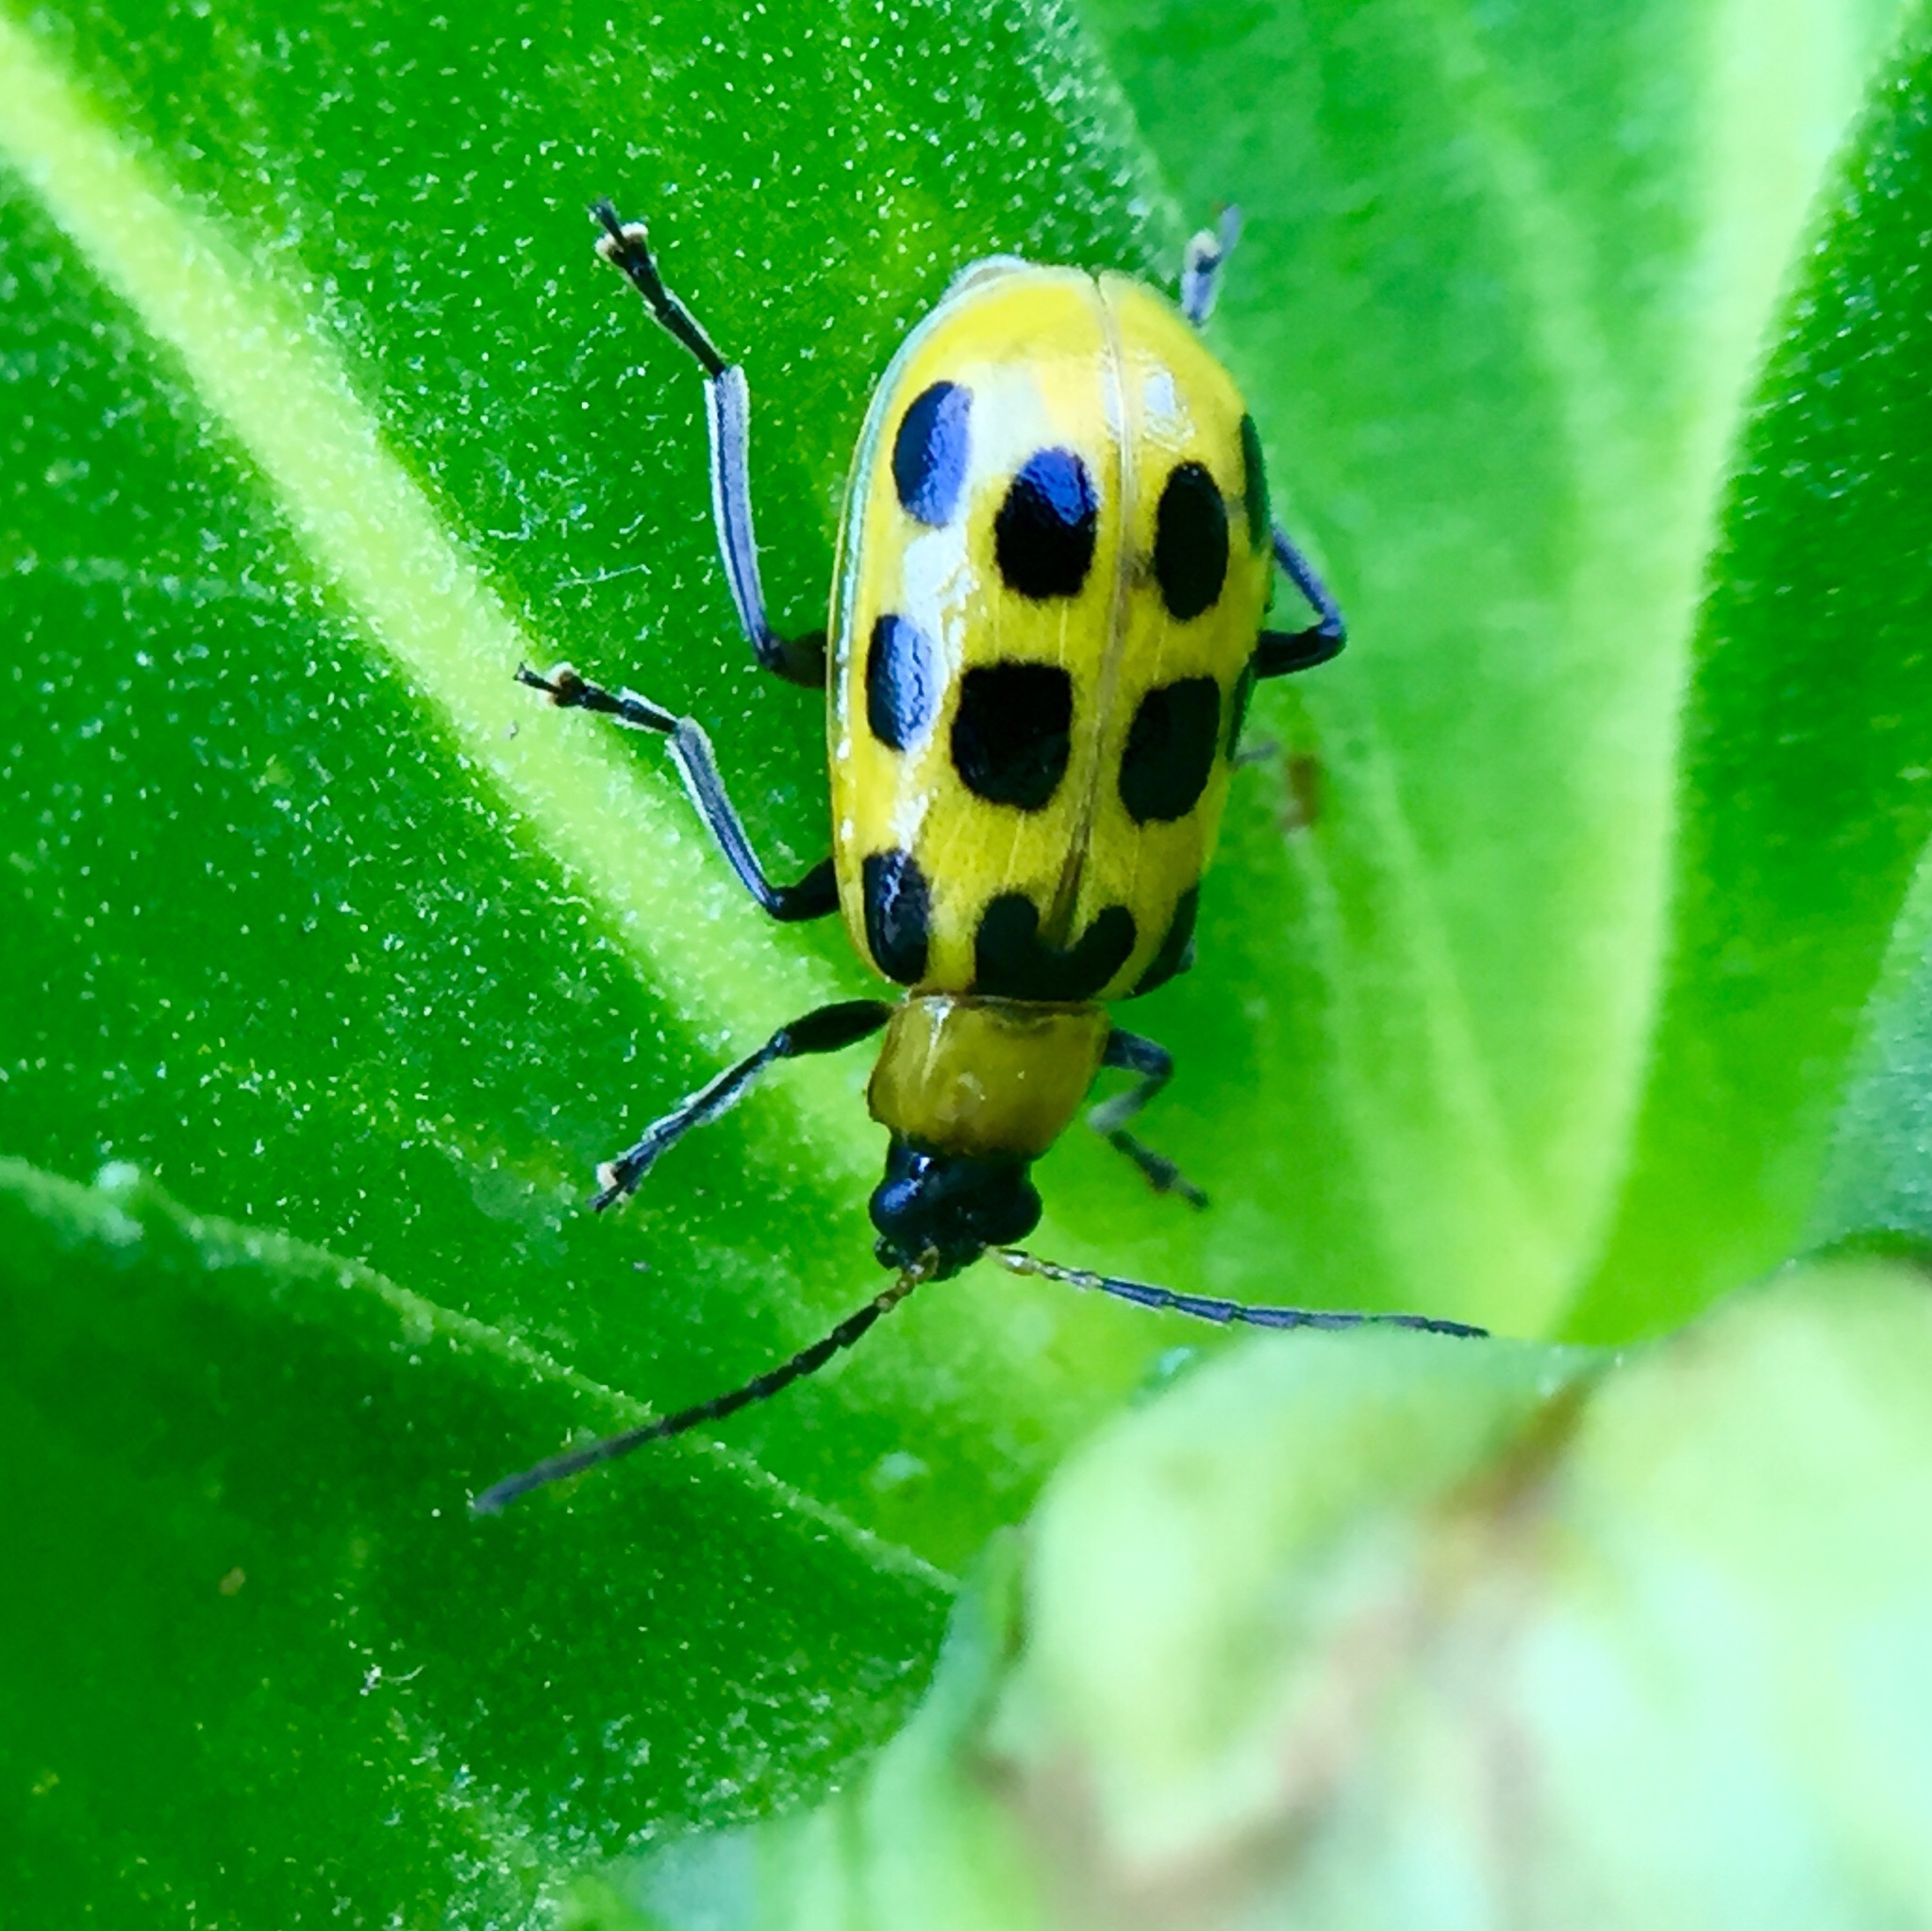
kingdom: Animalia
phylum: Arthropoda
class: Insecta
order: Coleoptera
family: Chrysomelidae
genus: Diabrotica
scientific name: Diabrotica undecimpunctata
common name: Spotted cucumber beetle
